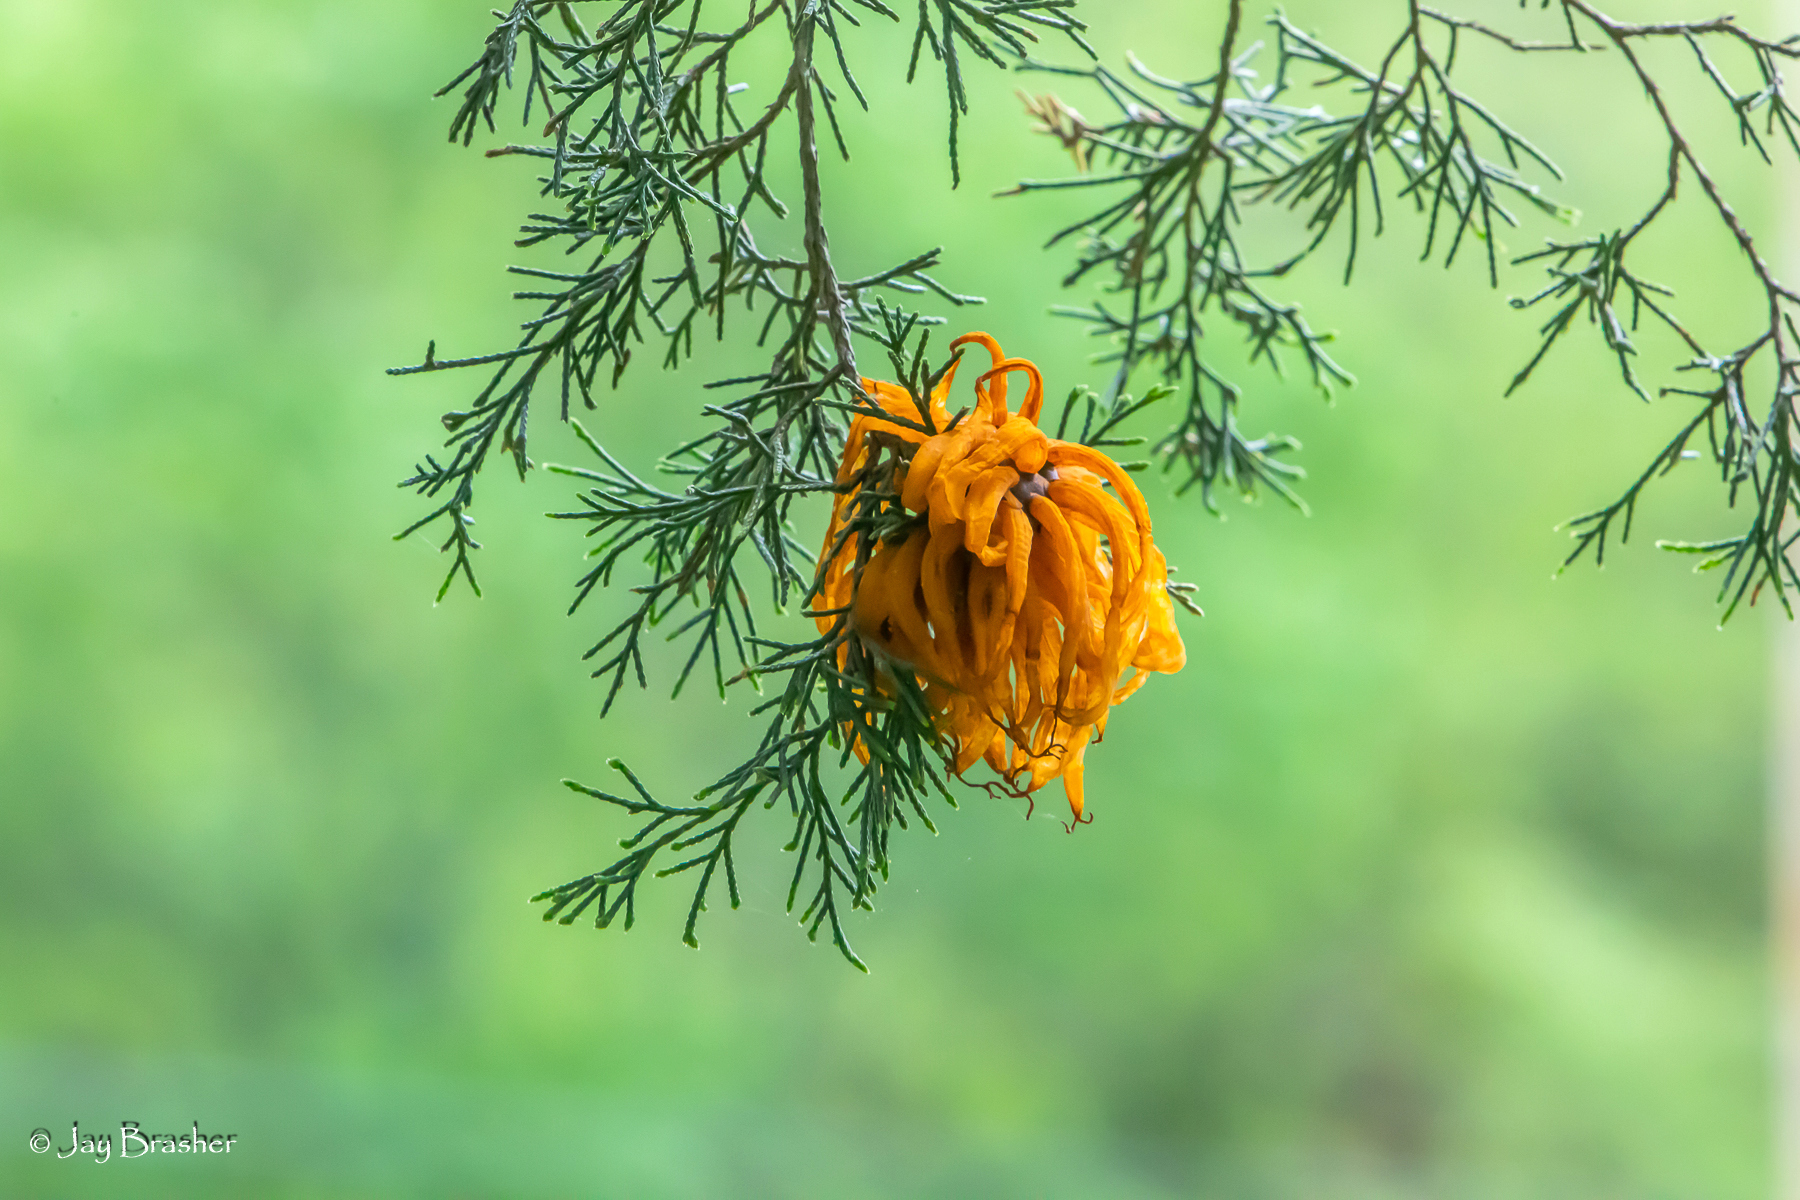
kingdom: Fungi
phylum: Basidiomycota
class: Pucciniomycetes
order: Pucciniales
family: Gymnosporangiaceae
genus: Gymnosporangium
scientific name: Gymnosporangium juniperi-virginianae
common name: Juniper-apple rust
